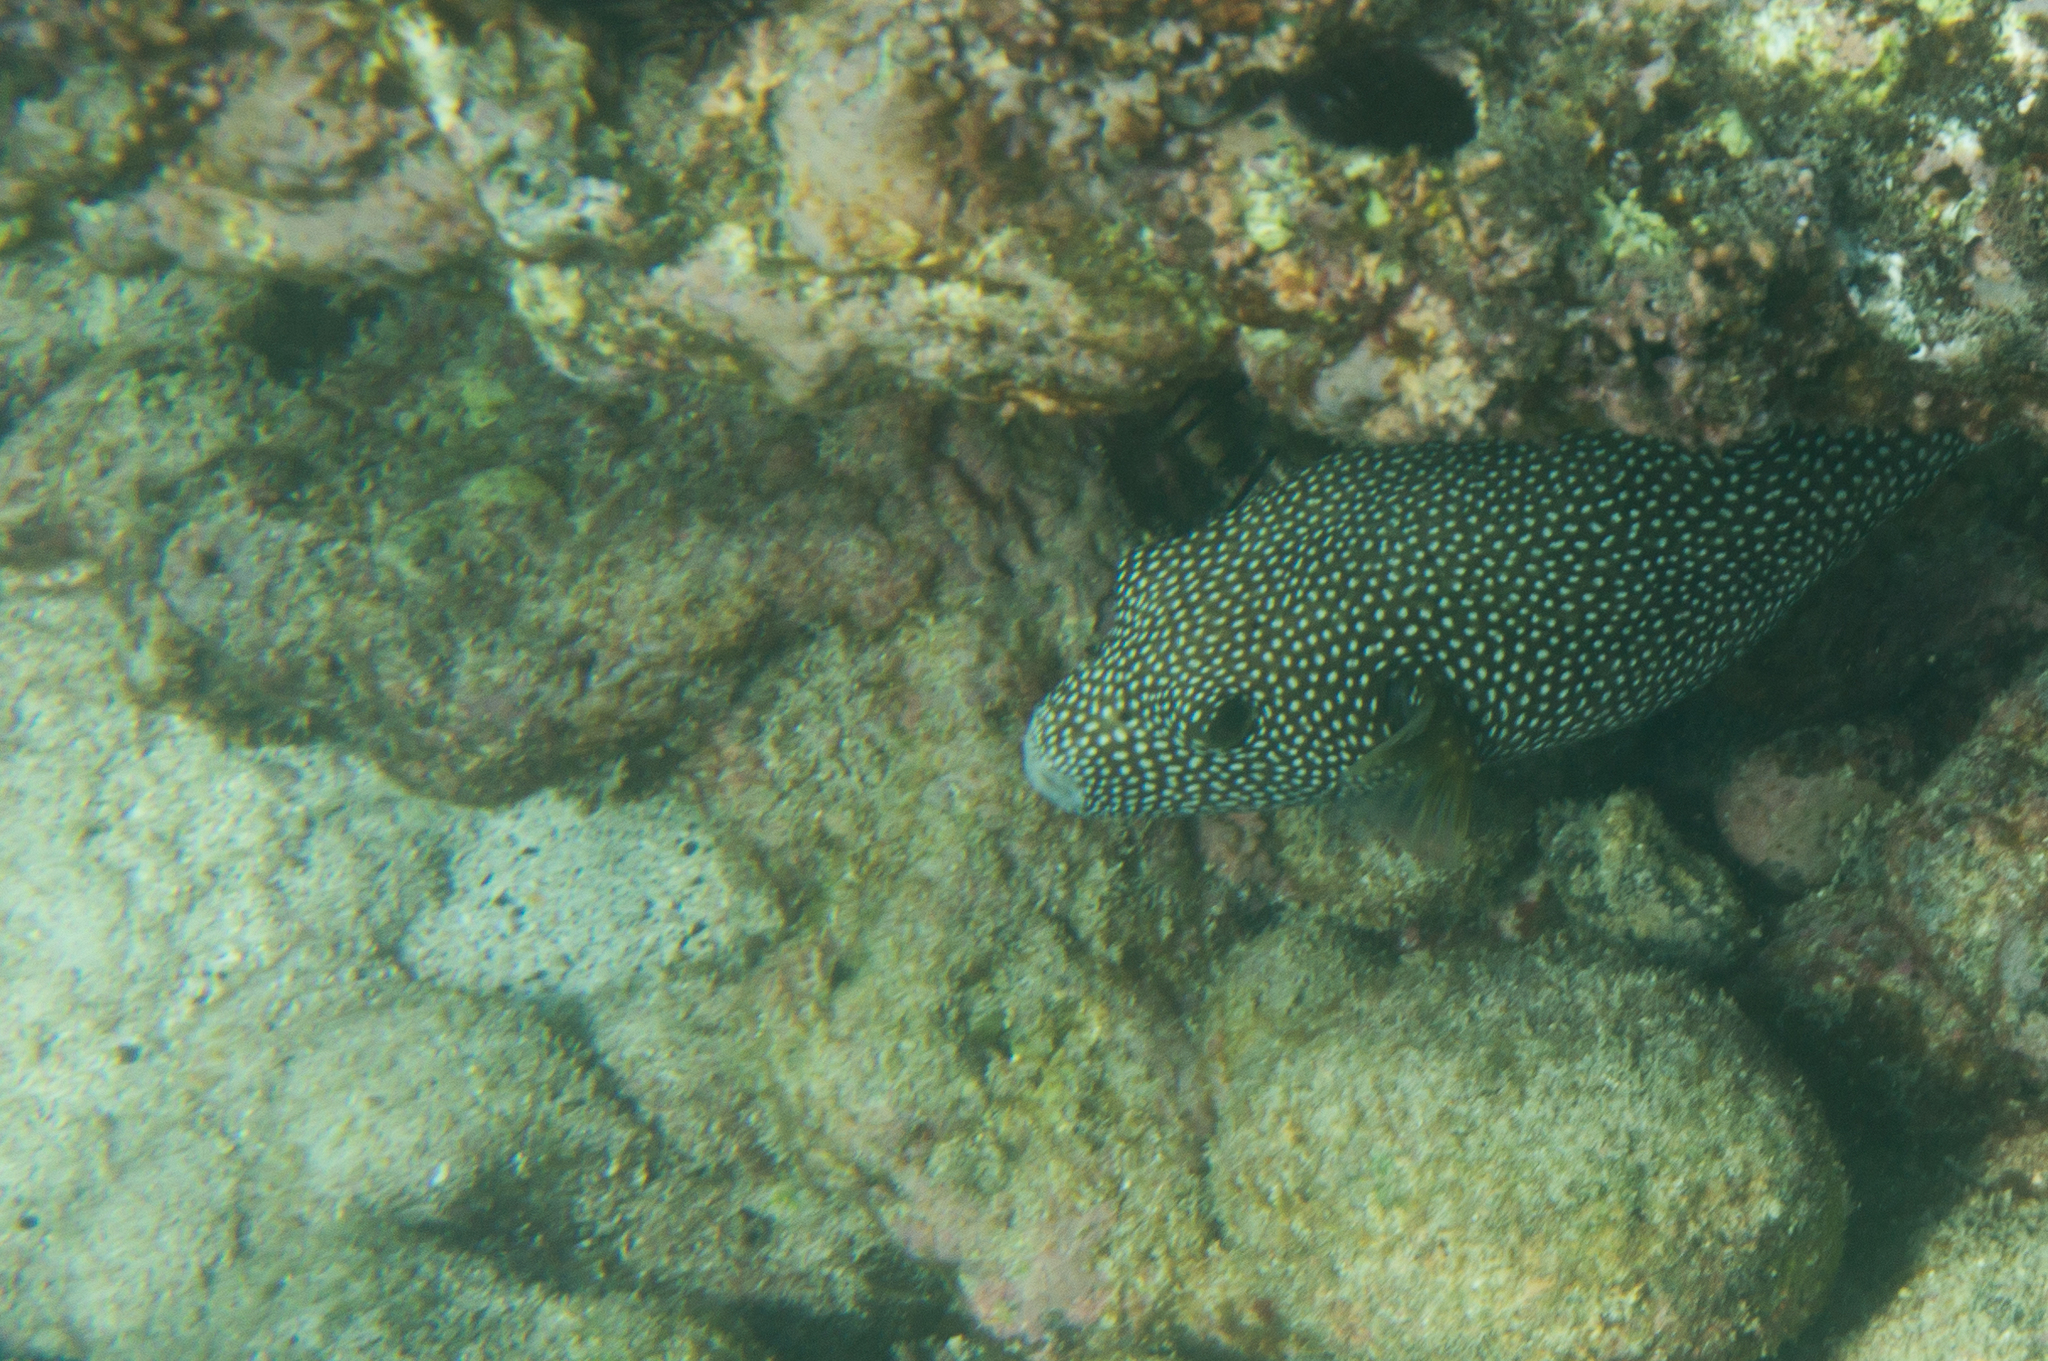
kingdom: Animalia
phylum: Chordata
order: Tetraodontiformes
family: Tetraodontidae
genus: Arothron
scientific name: Arothron meleagris
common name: Guinea-fowl pufferfish
